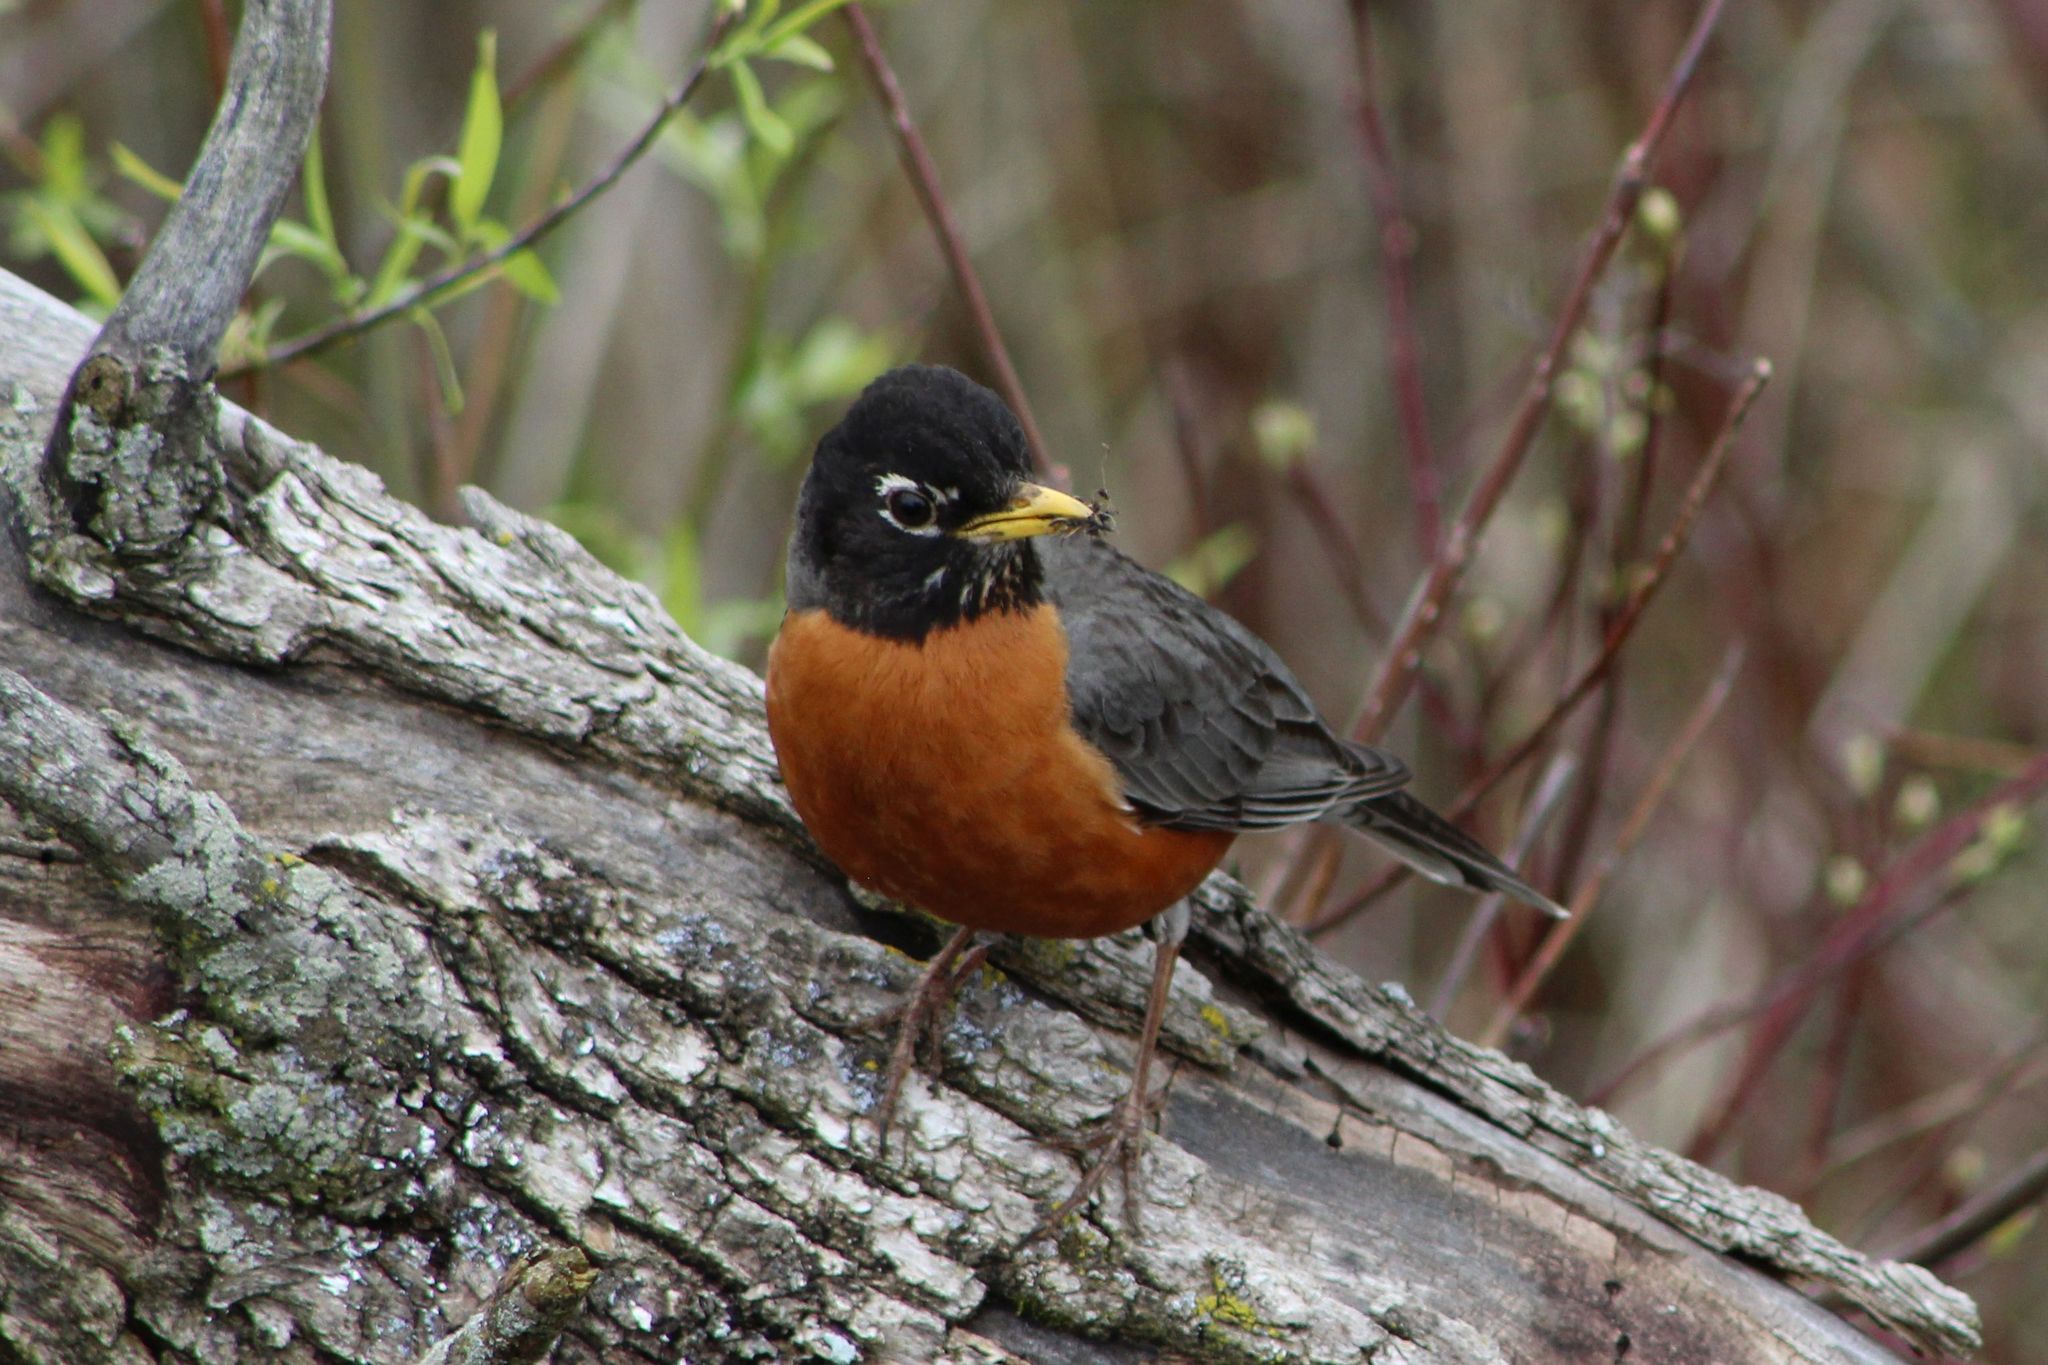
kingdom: Animalia
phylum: Chordata
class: Aves
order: Passeriformes
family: Turdidae
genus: Turdus
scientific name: Turdus migratorius
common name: American robin
